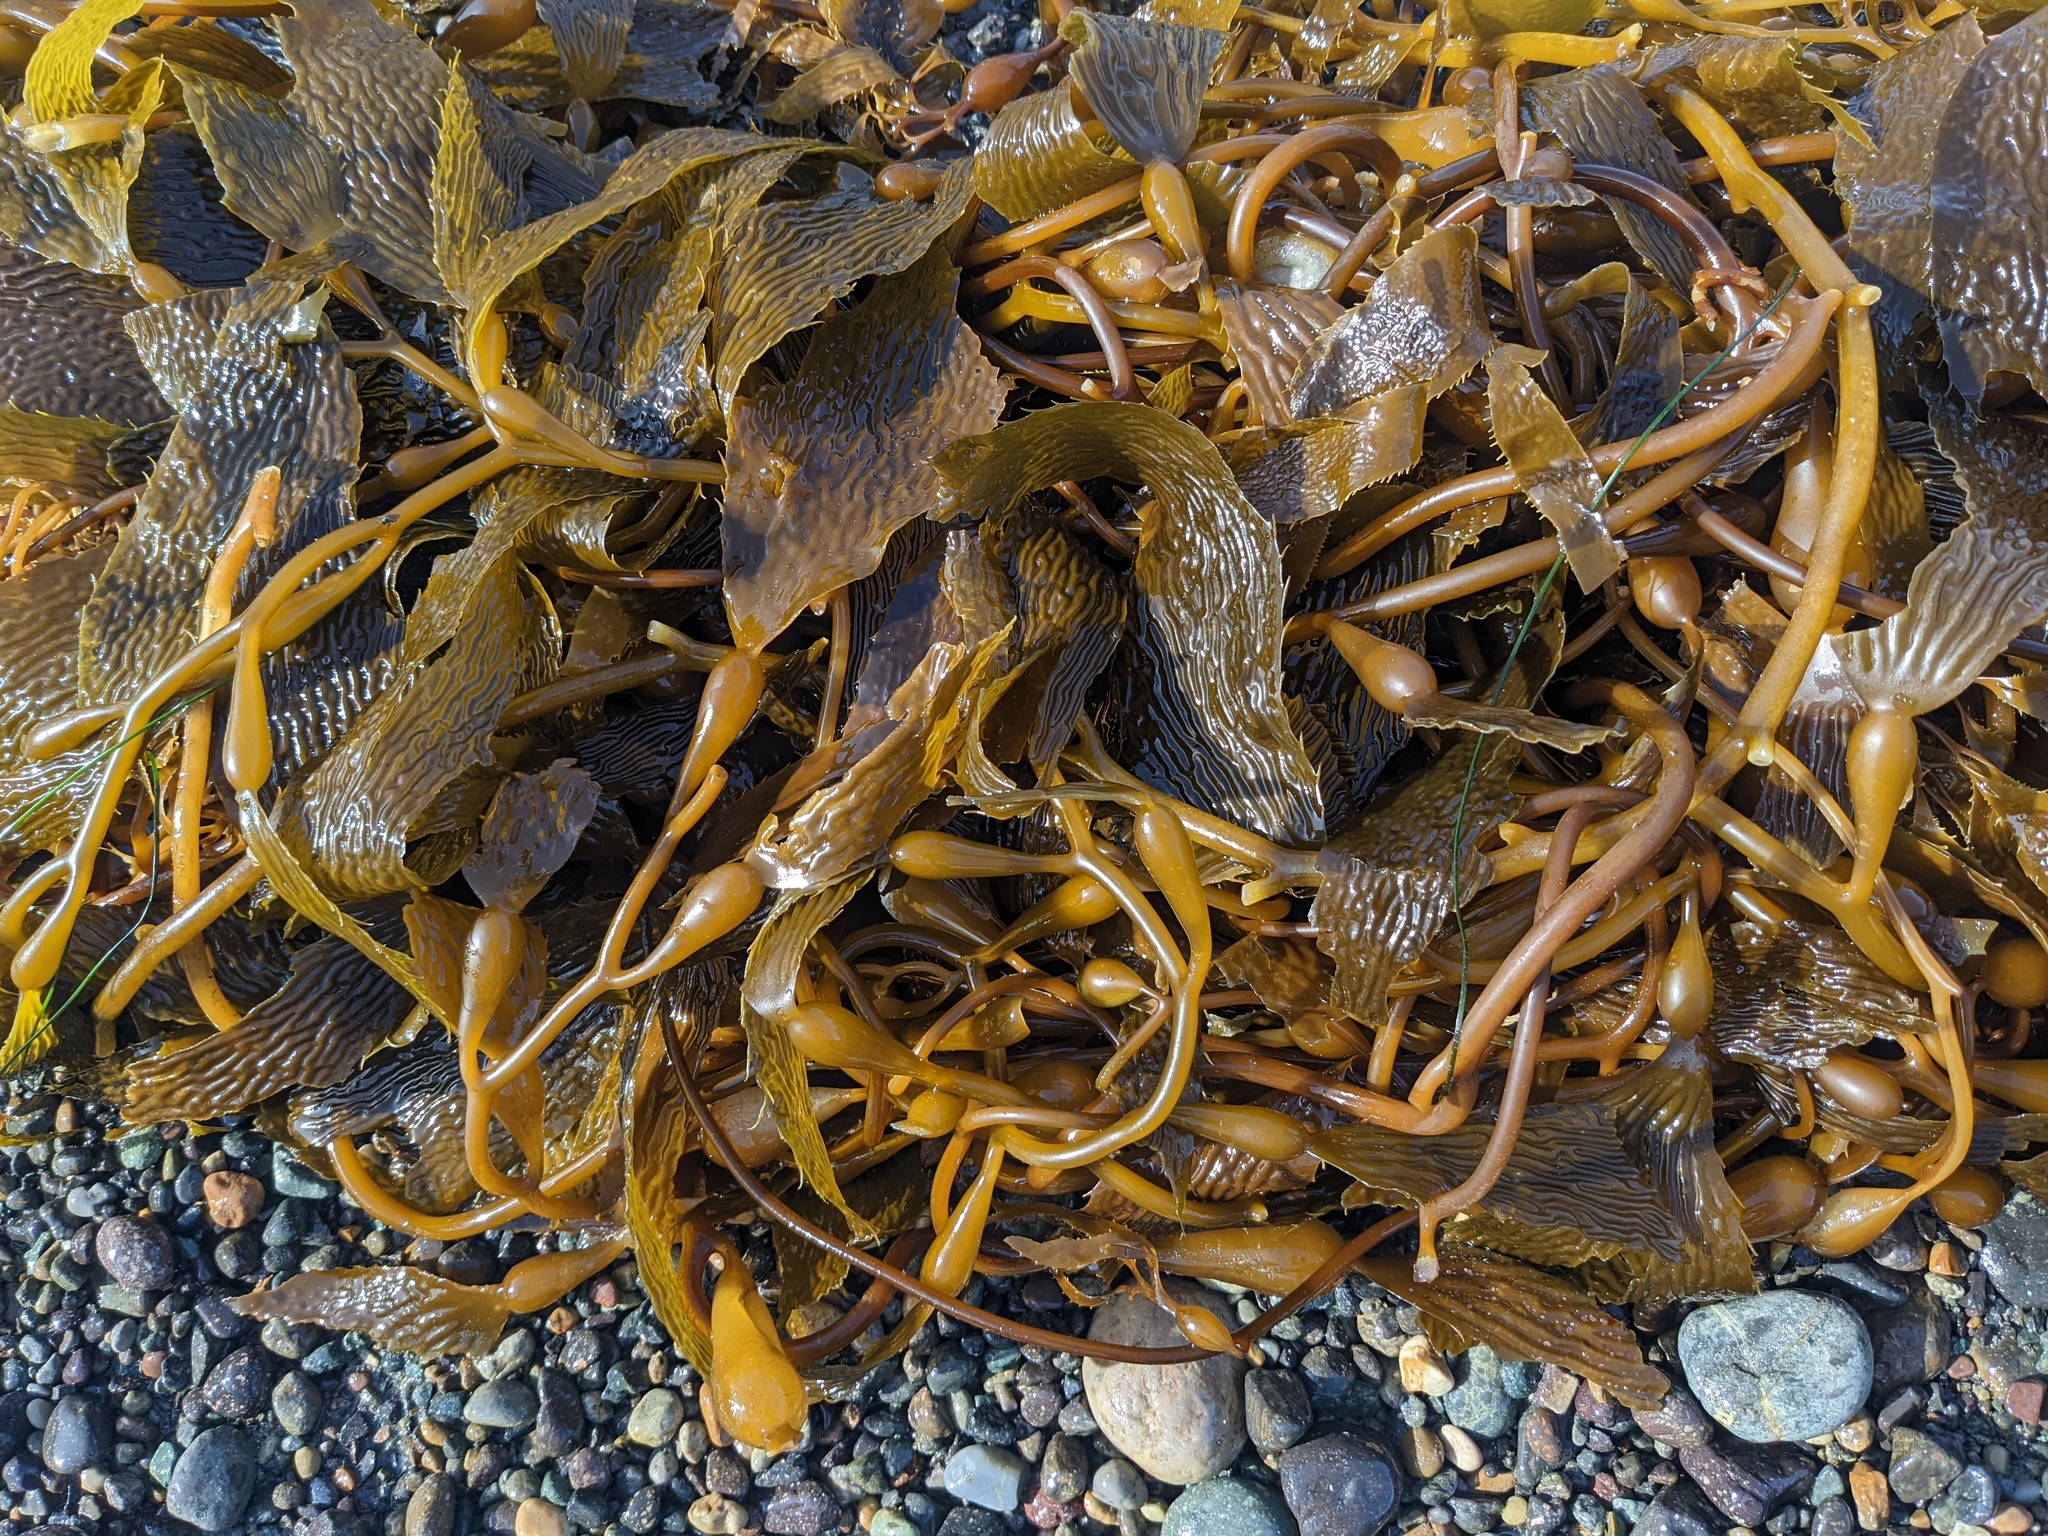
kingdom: Chromista
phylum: Ochrophyta
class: Phaeophyceae
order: Laminariales
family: Laminariaceae
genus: Macrocystis
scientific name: Macrocystis pyrifera
